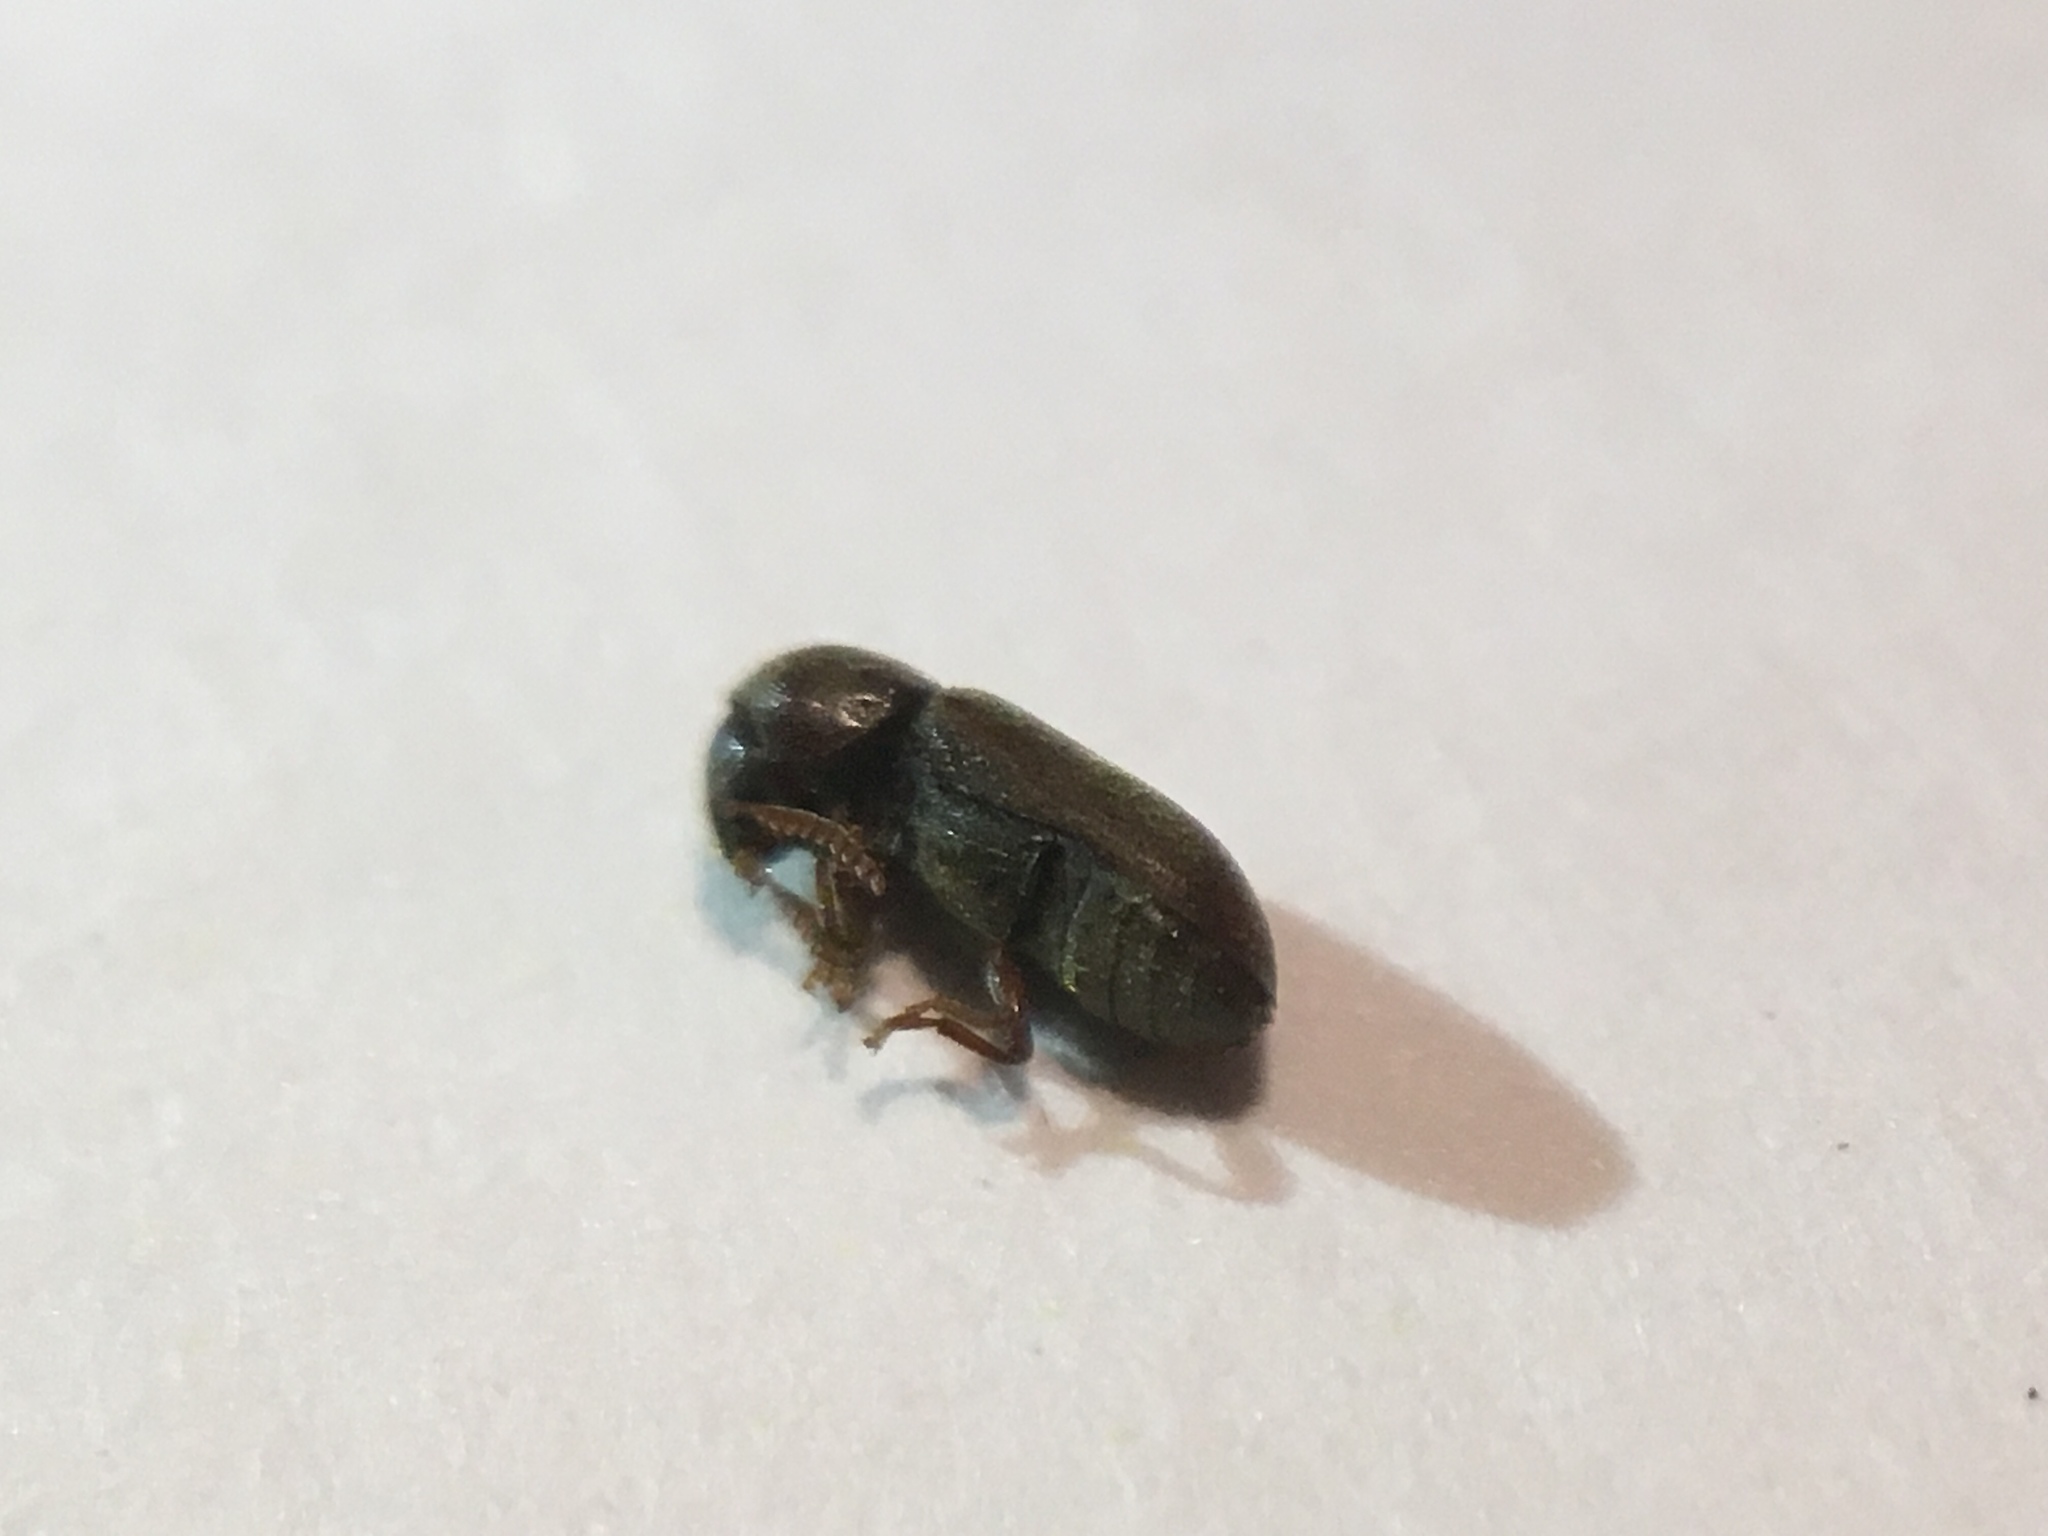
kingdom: Animalia
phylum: Arthropoda
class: Insecta
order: Coleoptera
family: Anobiidae
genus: Ptilinus
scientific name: Ptilinus ruficornis
